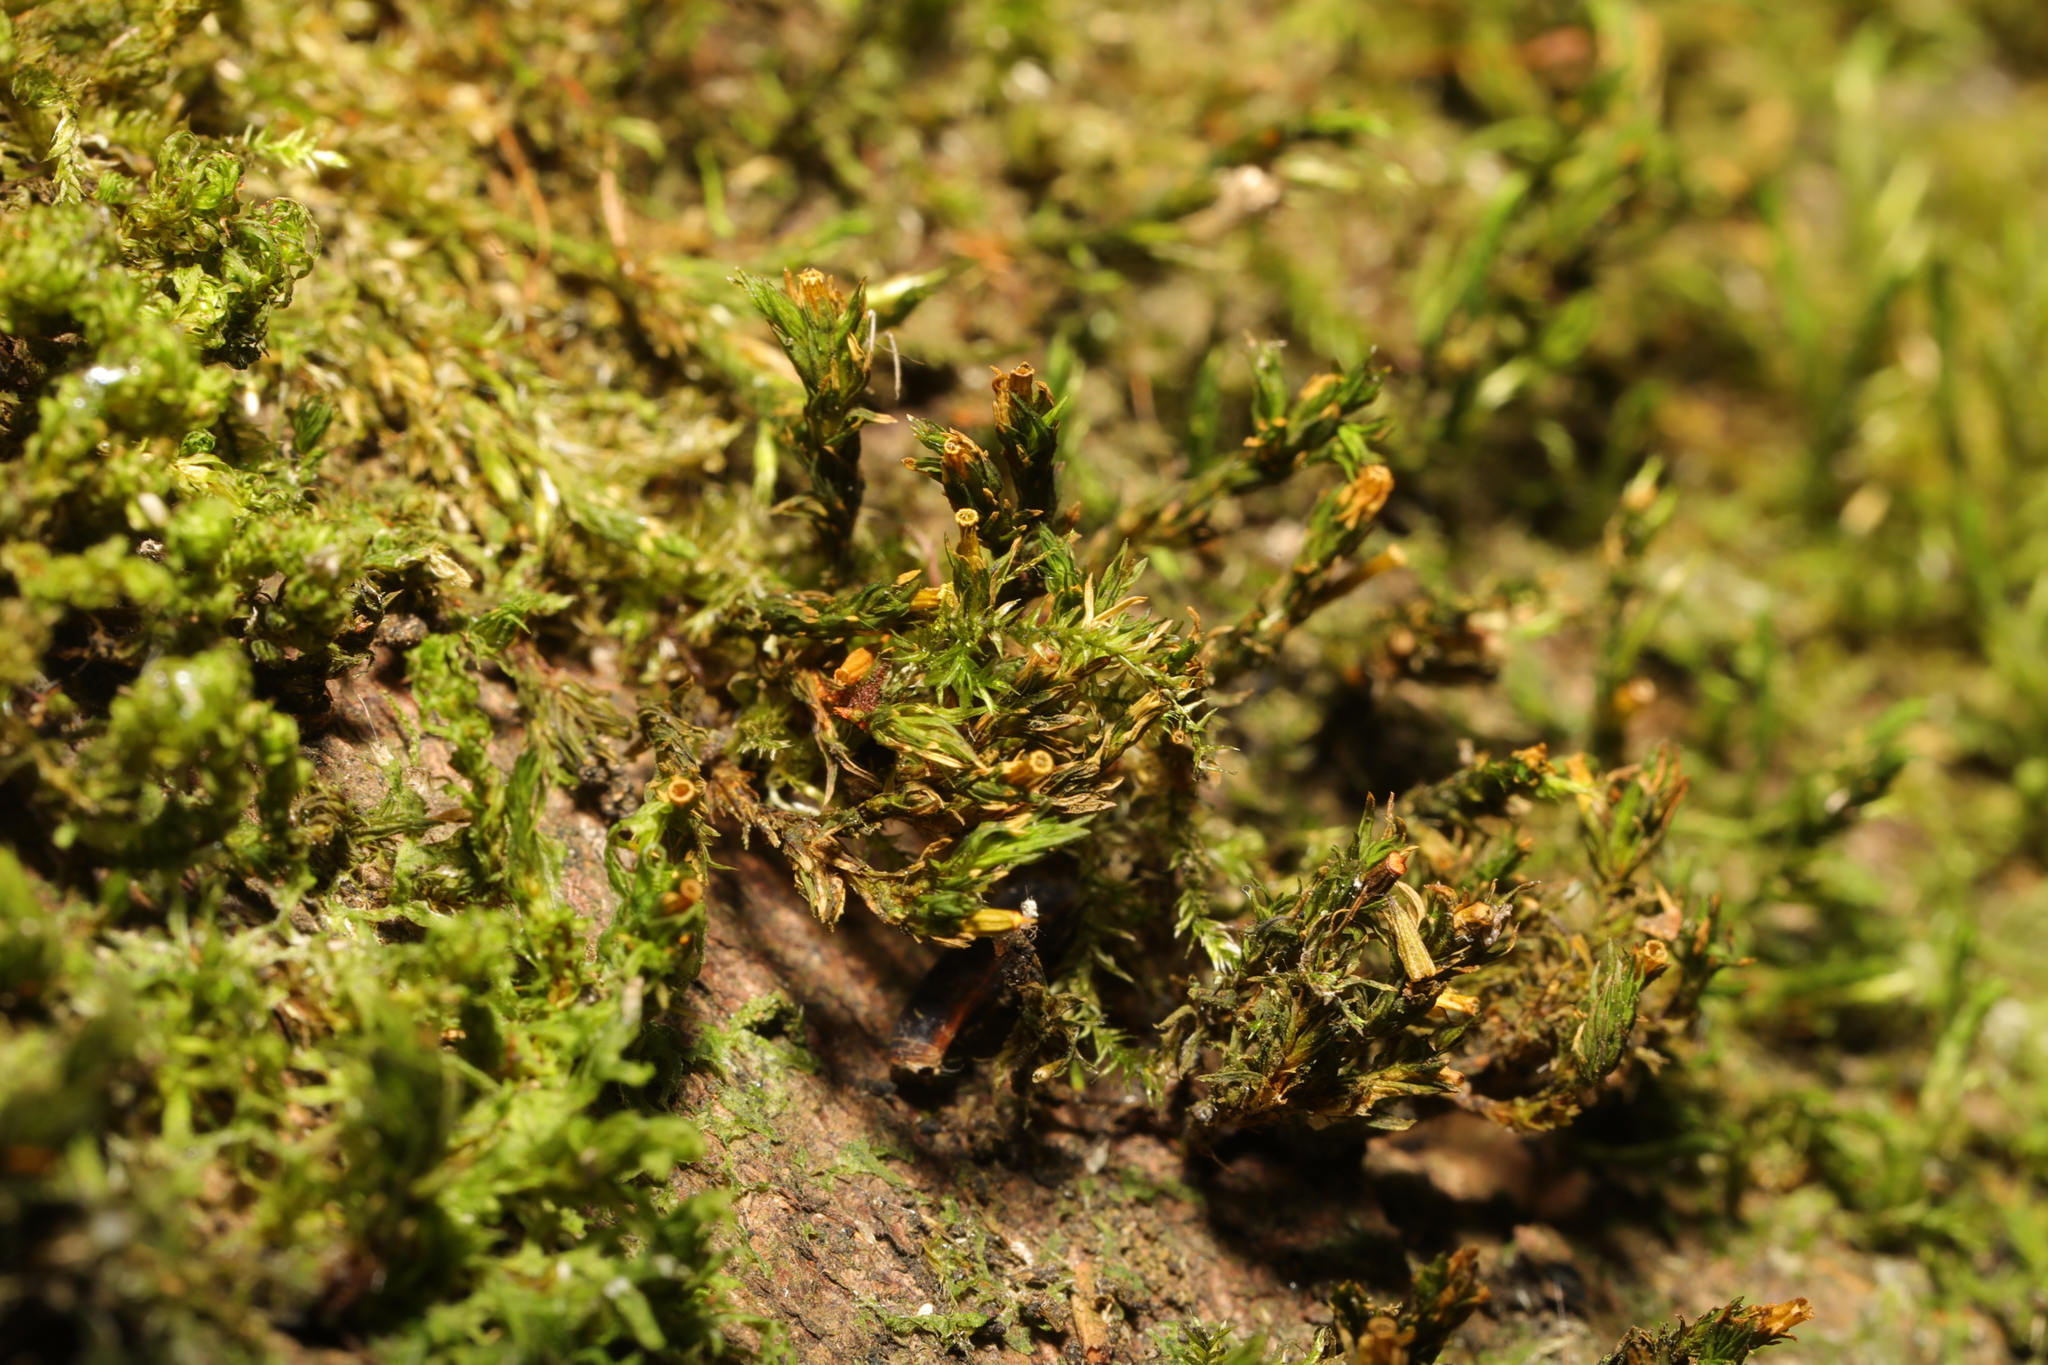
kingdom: Plantae
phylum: Bryophyta
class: Bryopsida
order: Orthotrichales
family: Orthotrichaceae
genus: Lewinskya
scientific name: Lewinskya affinis
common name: Wood bristle-moss
